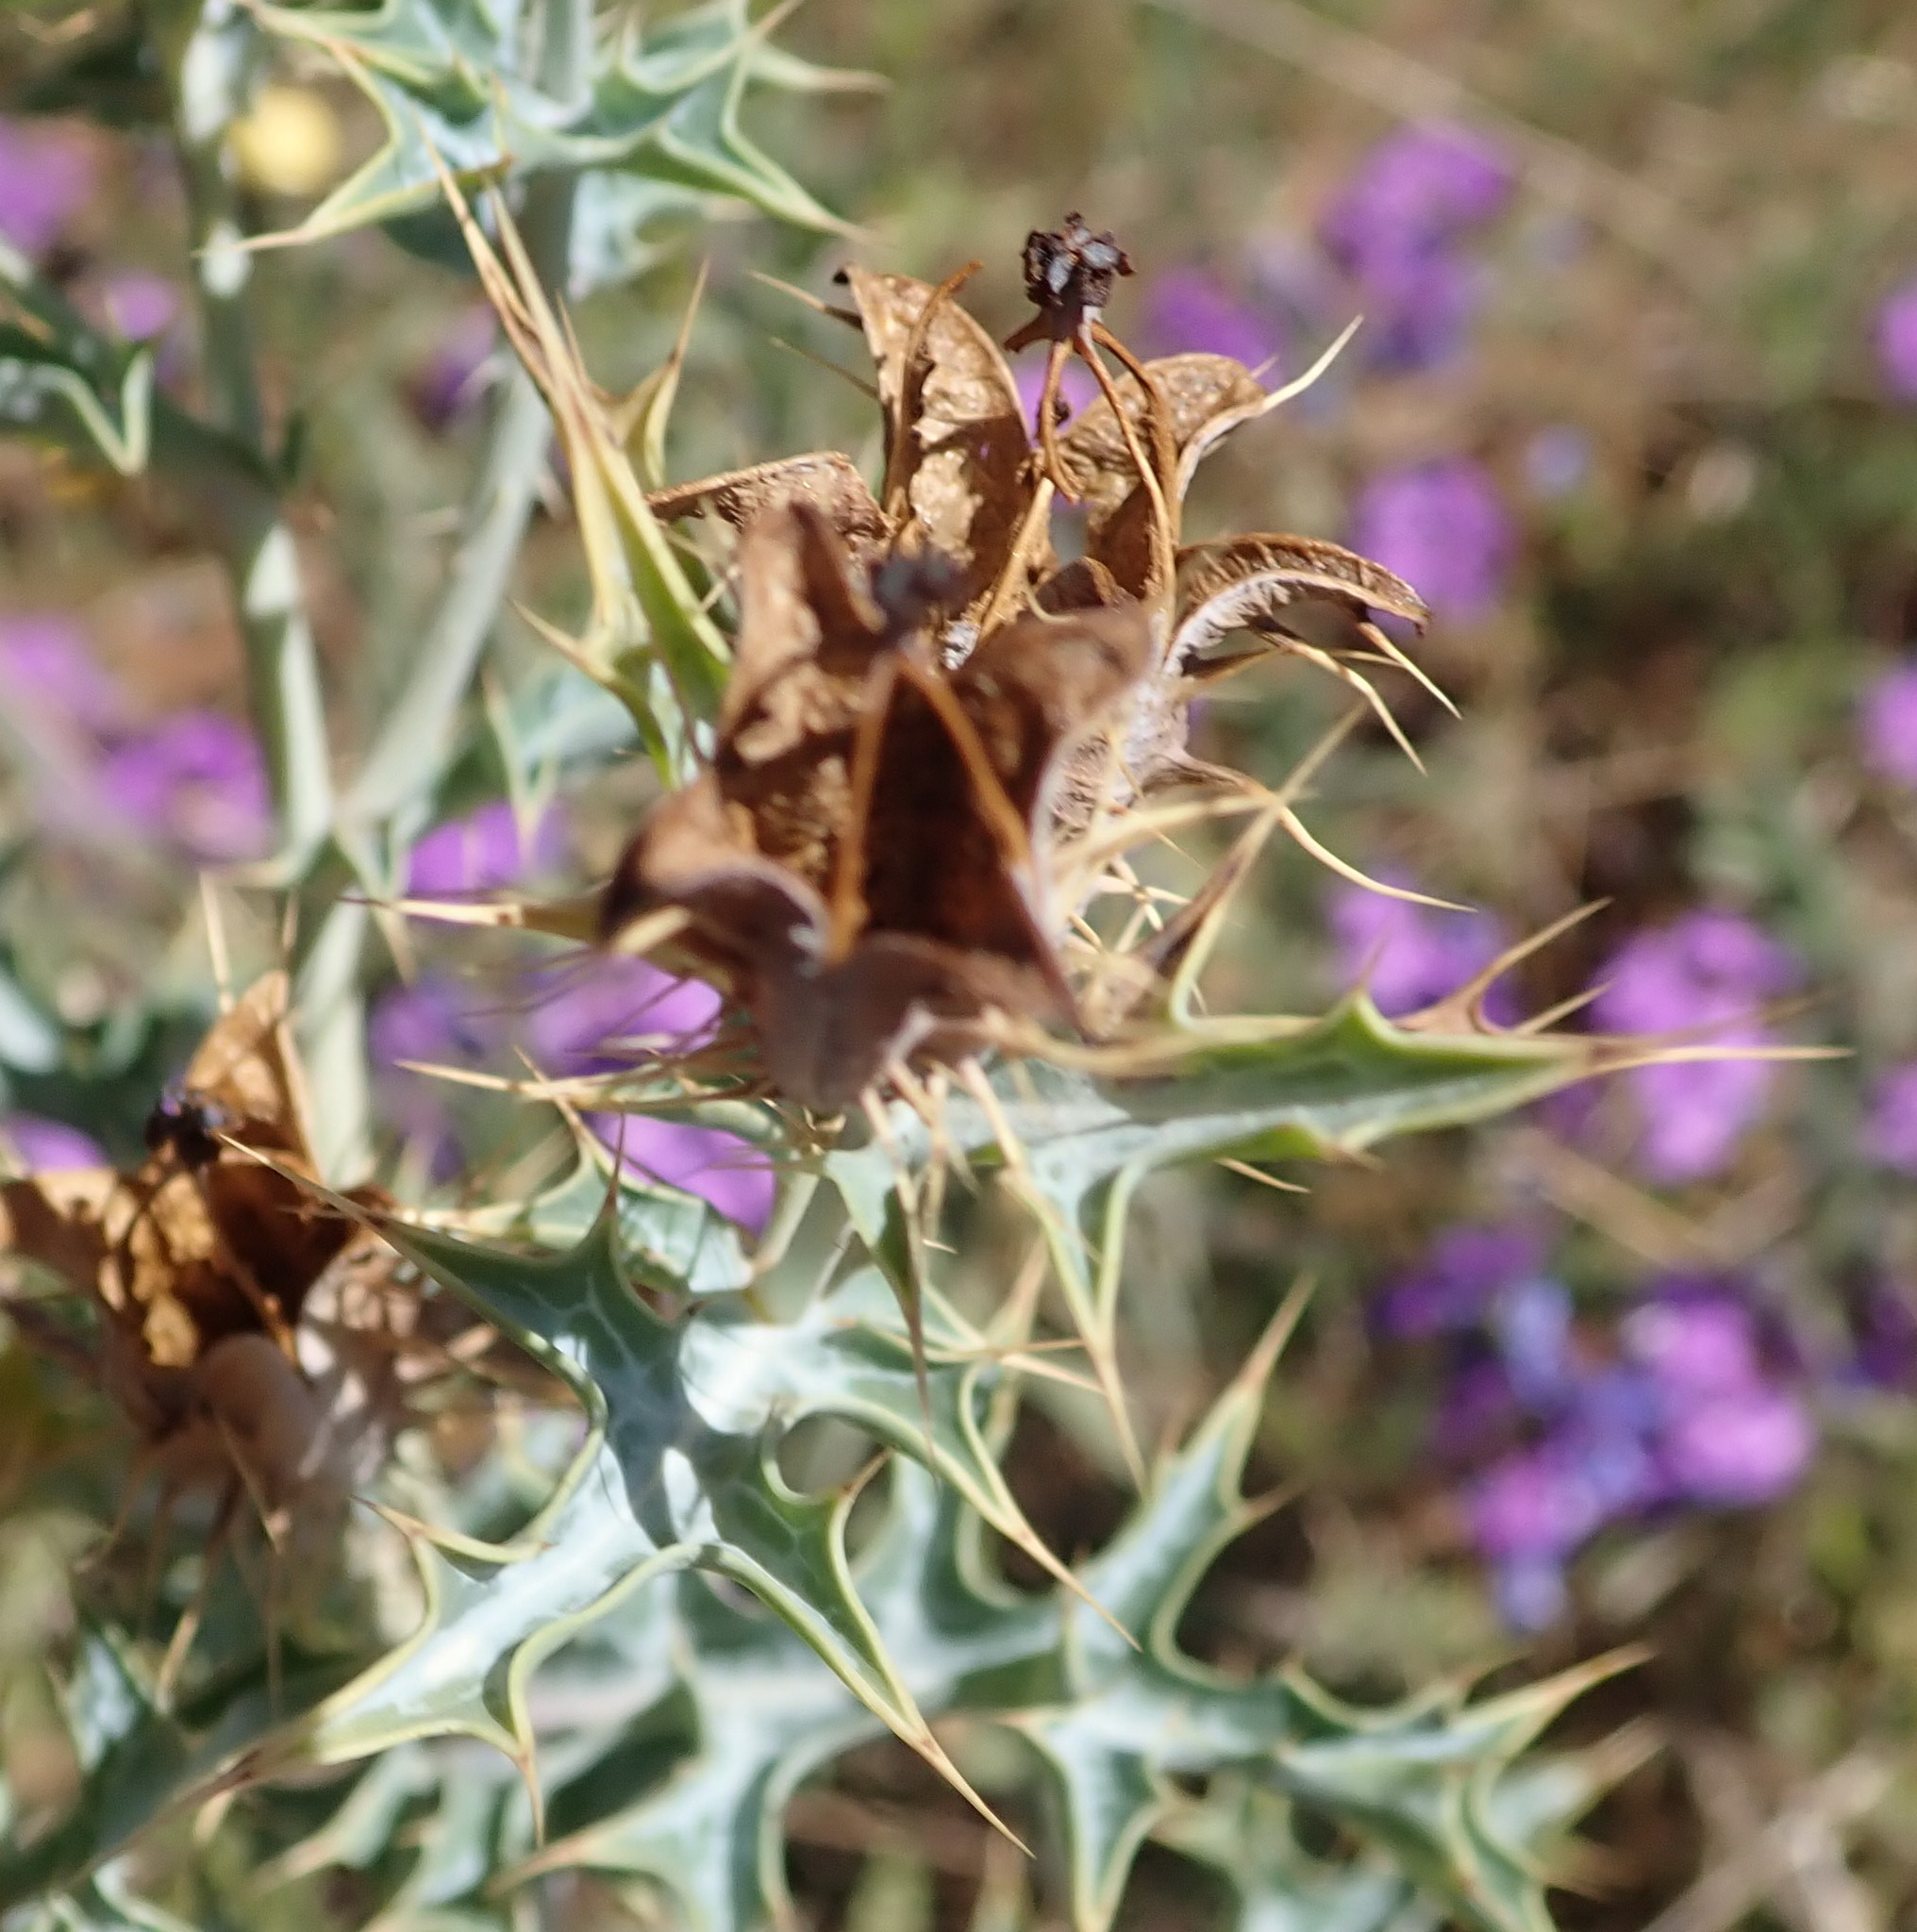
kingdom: Plantae
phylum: Tracheophyta
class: Magnoliopsida
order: Ranunculales
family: Papaveraceae
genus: Argemone
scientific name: Argemone ochroleuca
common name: White-flower mexican-poppy
